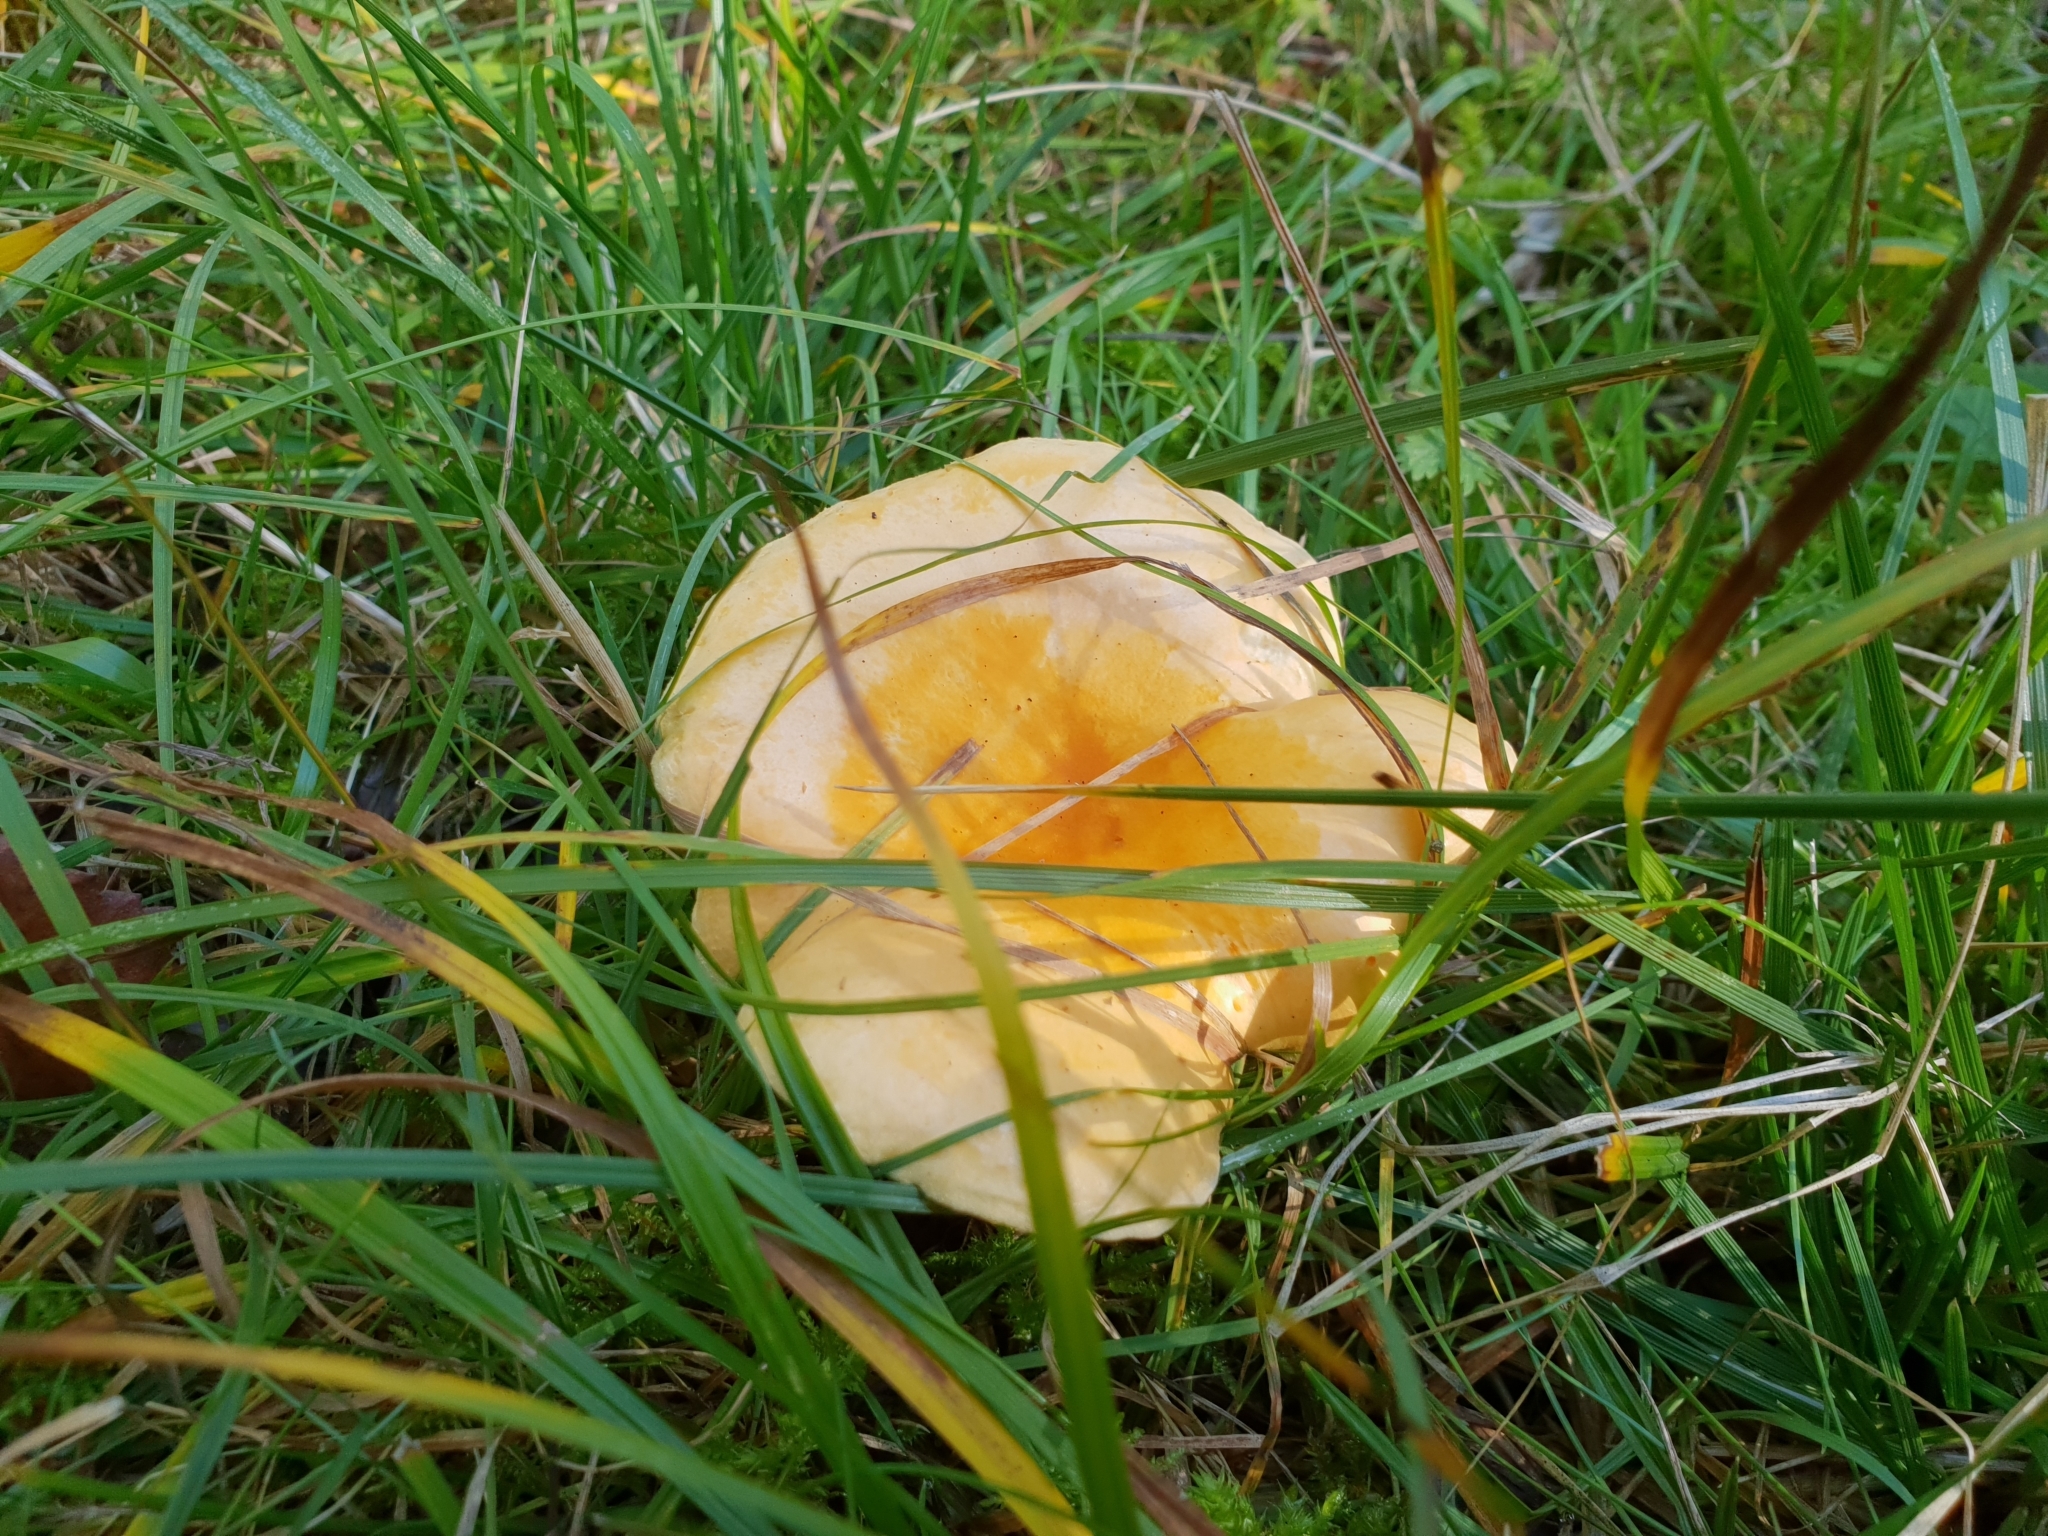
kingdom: Fungi
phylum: Basidiomycota
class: Agaricomycetes
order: Boletales
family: Hygrophoropsidaceae
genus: Hygrophoropsis
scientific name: Hygrophoropsis aurantiaca
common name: False chanterelle
